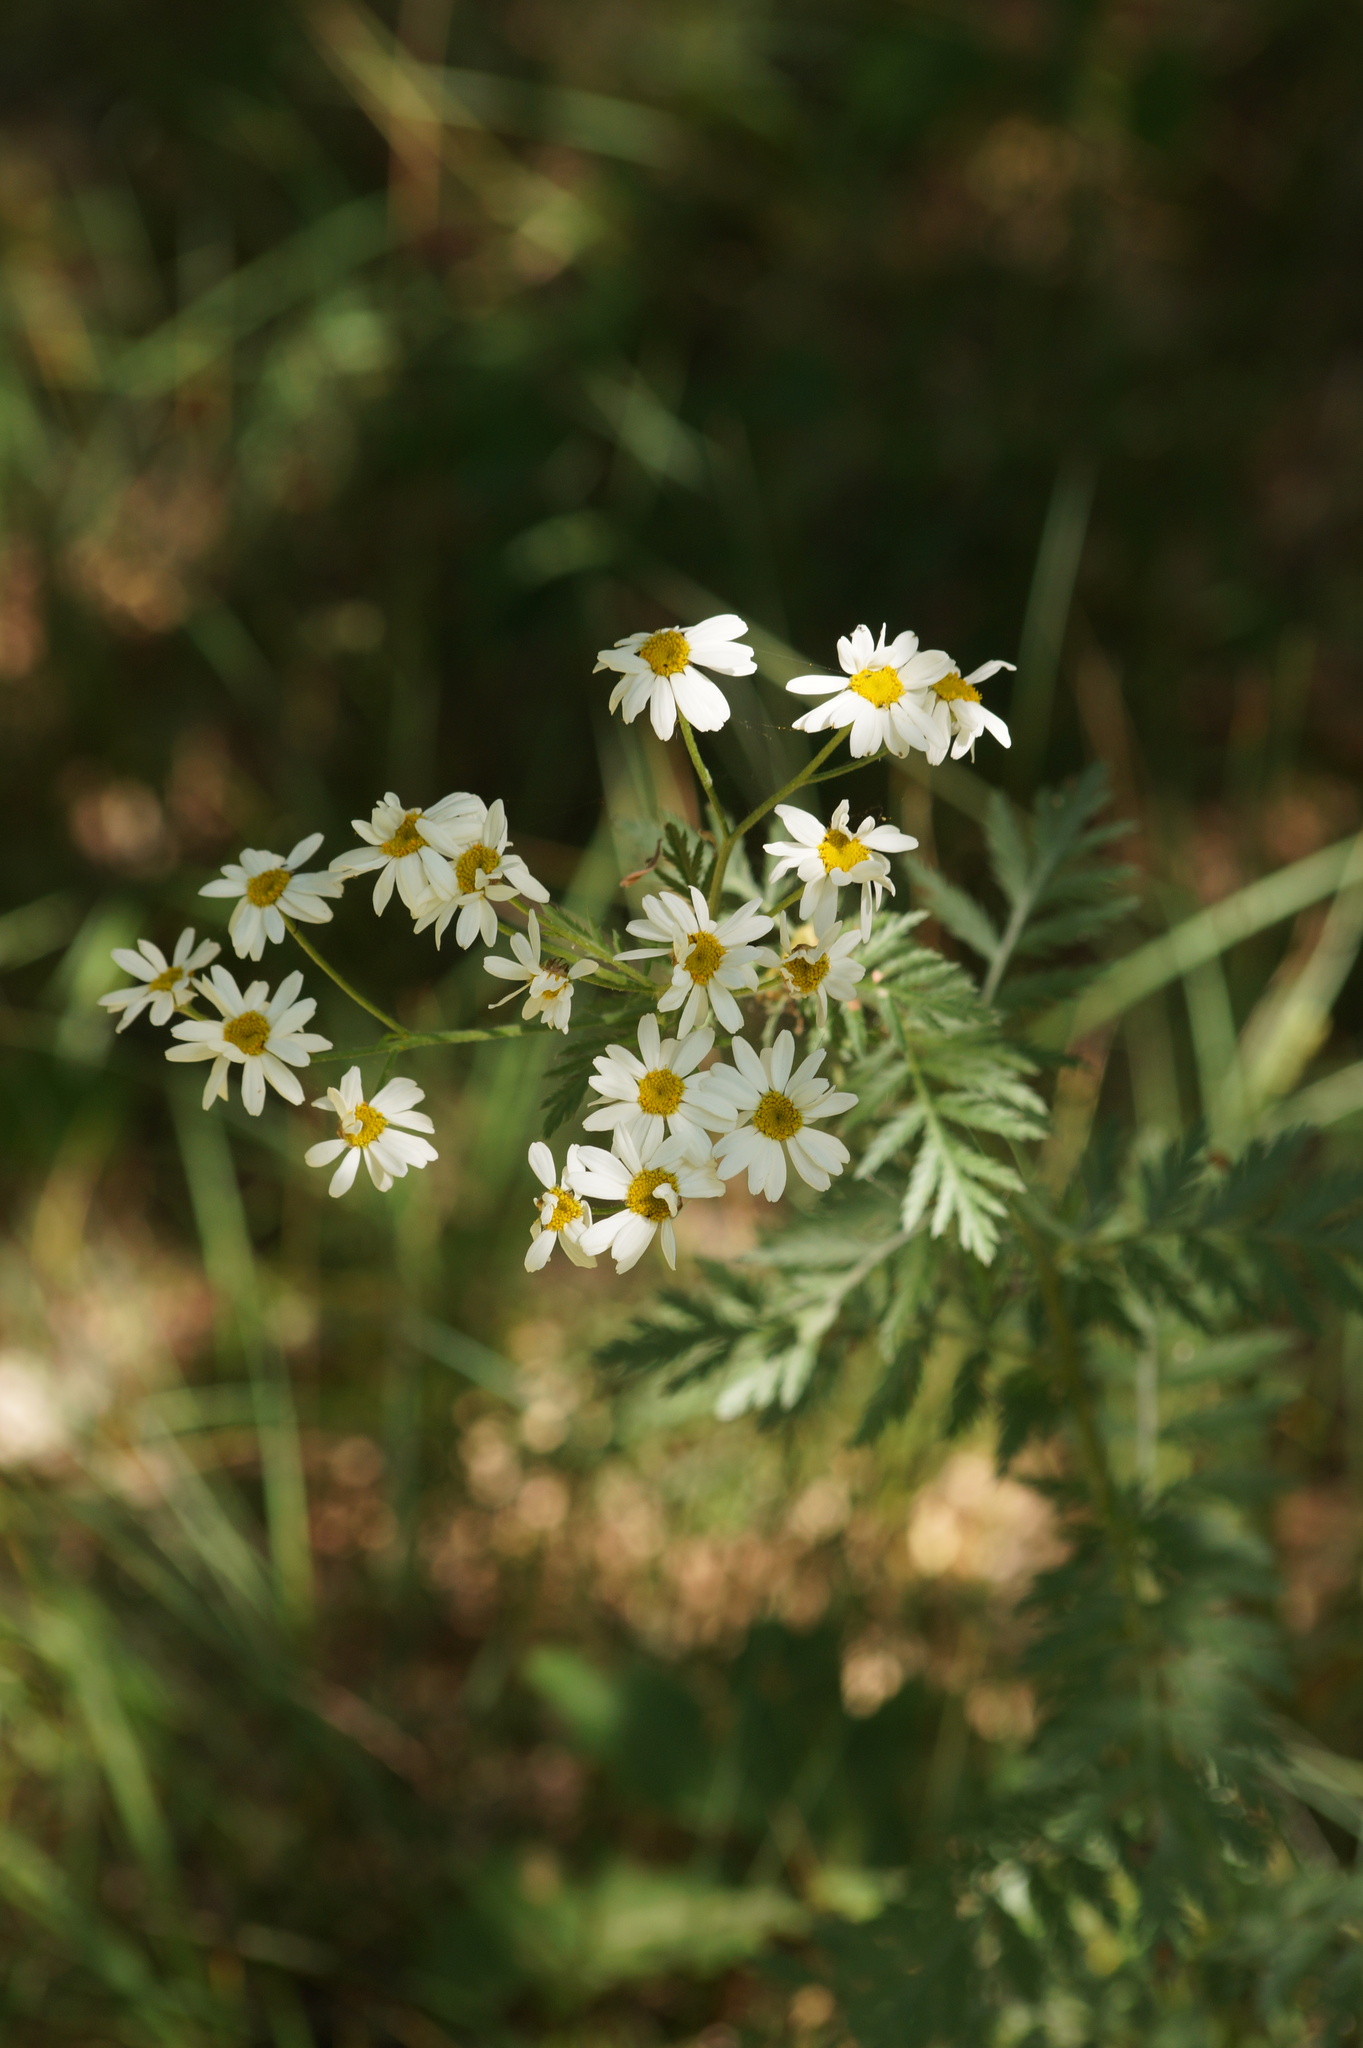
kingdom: Plantae
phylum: Tracheophyta
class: Magnoliopsida
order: Asterales
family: Asteraceae
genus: Tanacetum
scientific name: Tanacetum corymbosum
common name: Scentless feverfew
